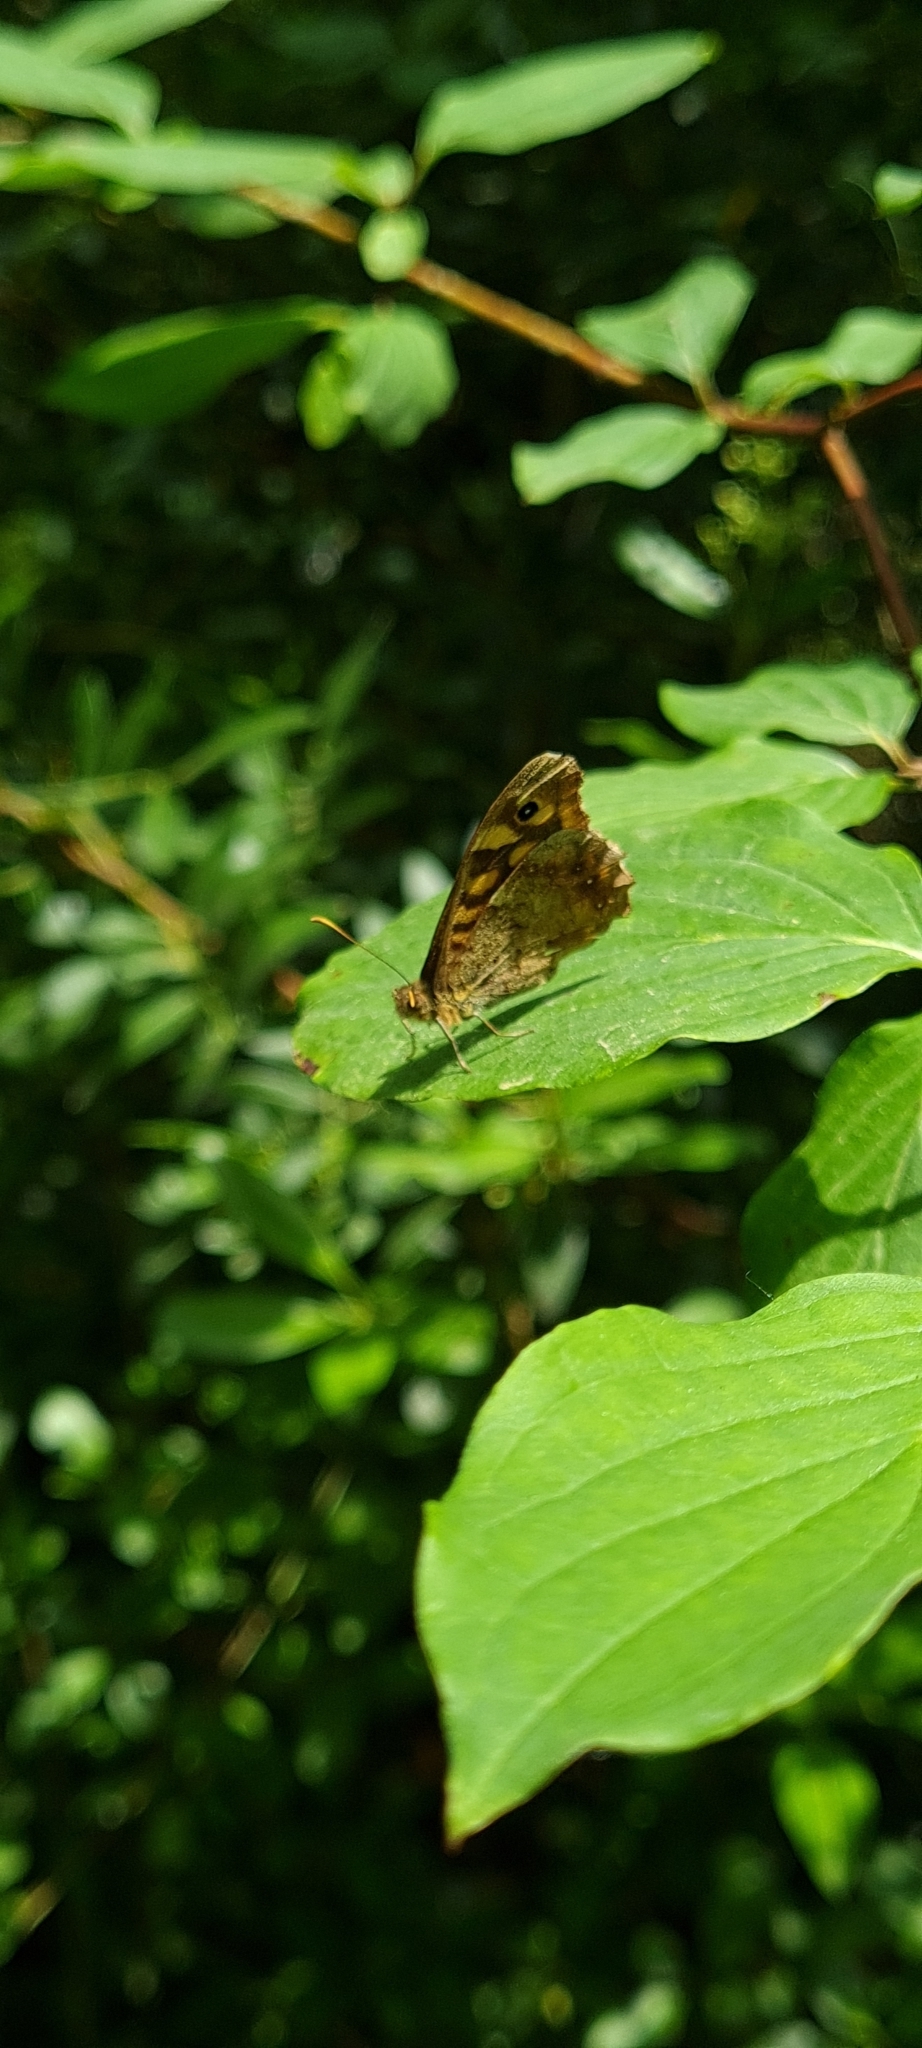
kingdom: Animalia
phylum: Arthropoda
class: Insecta
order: Lepidoptera
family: Nymphalidae
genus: Pararge
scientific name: Pararge aegeria
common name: Speckled wood
